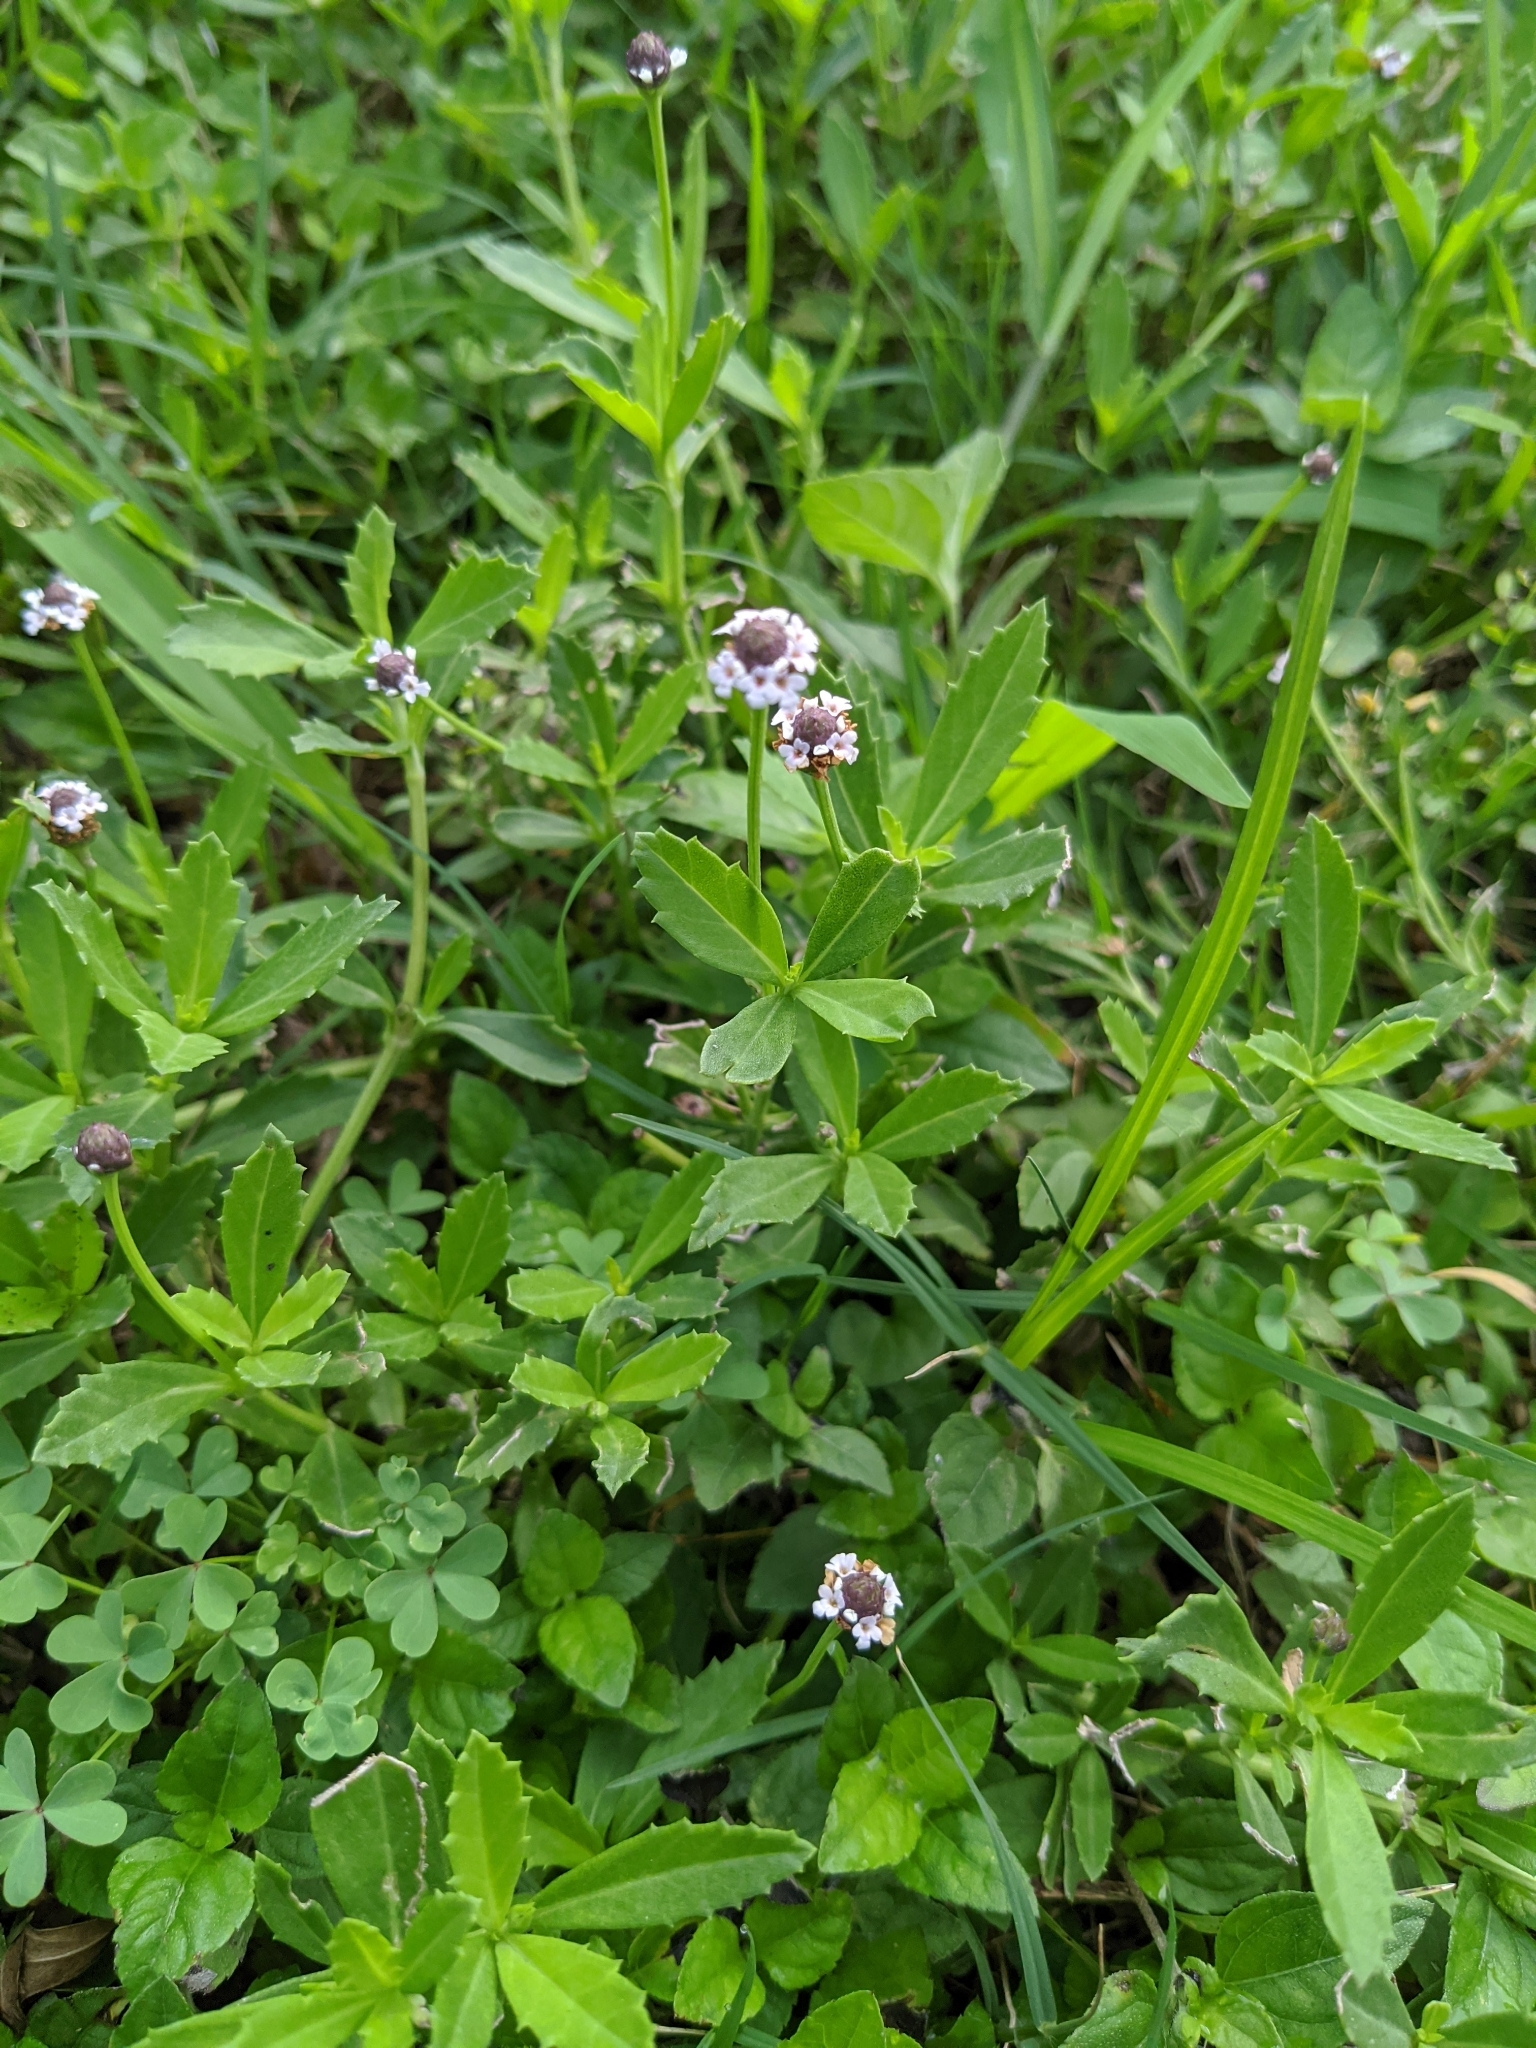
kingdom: Plantae
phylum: Tracheophyta
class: Magnoliopsida
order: Lamiales
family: Verbenaceae
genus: Phyla
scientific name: Phyla nodiflora
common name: Frogfruit
